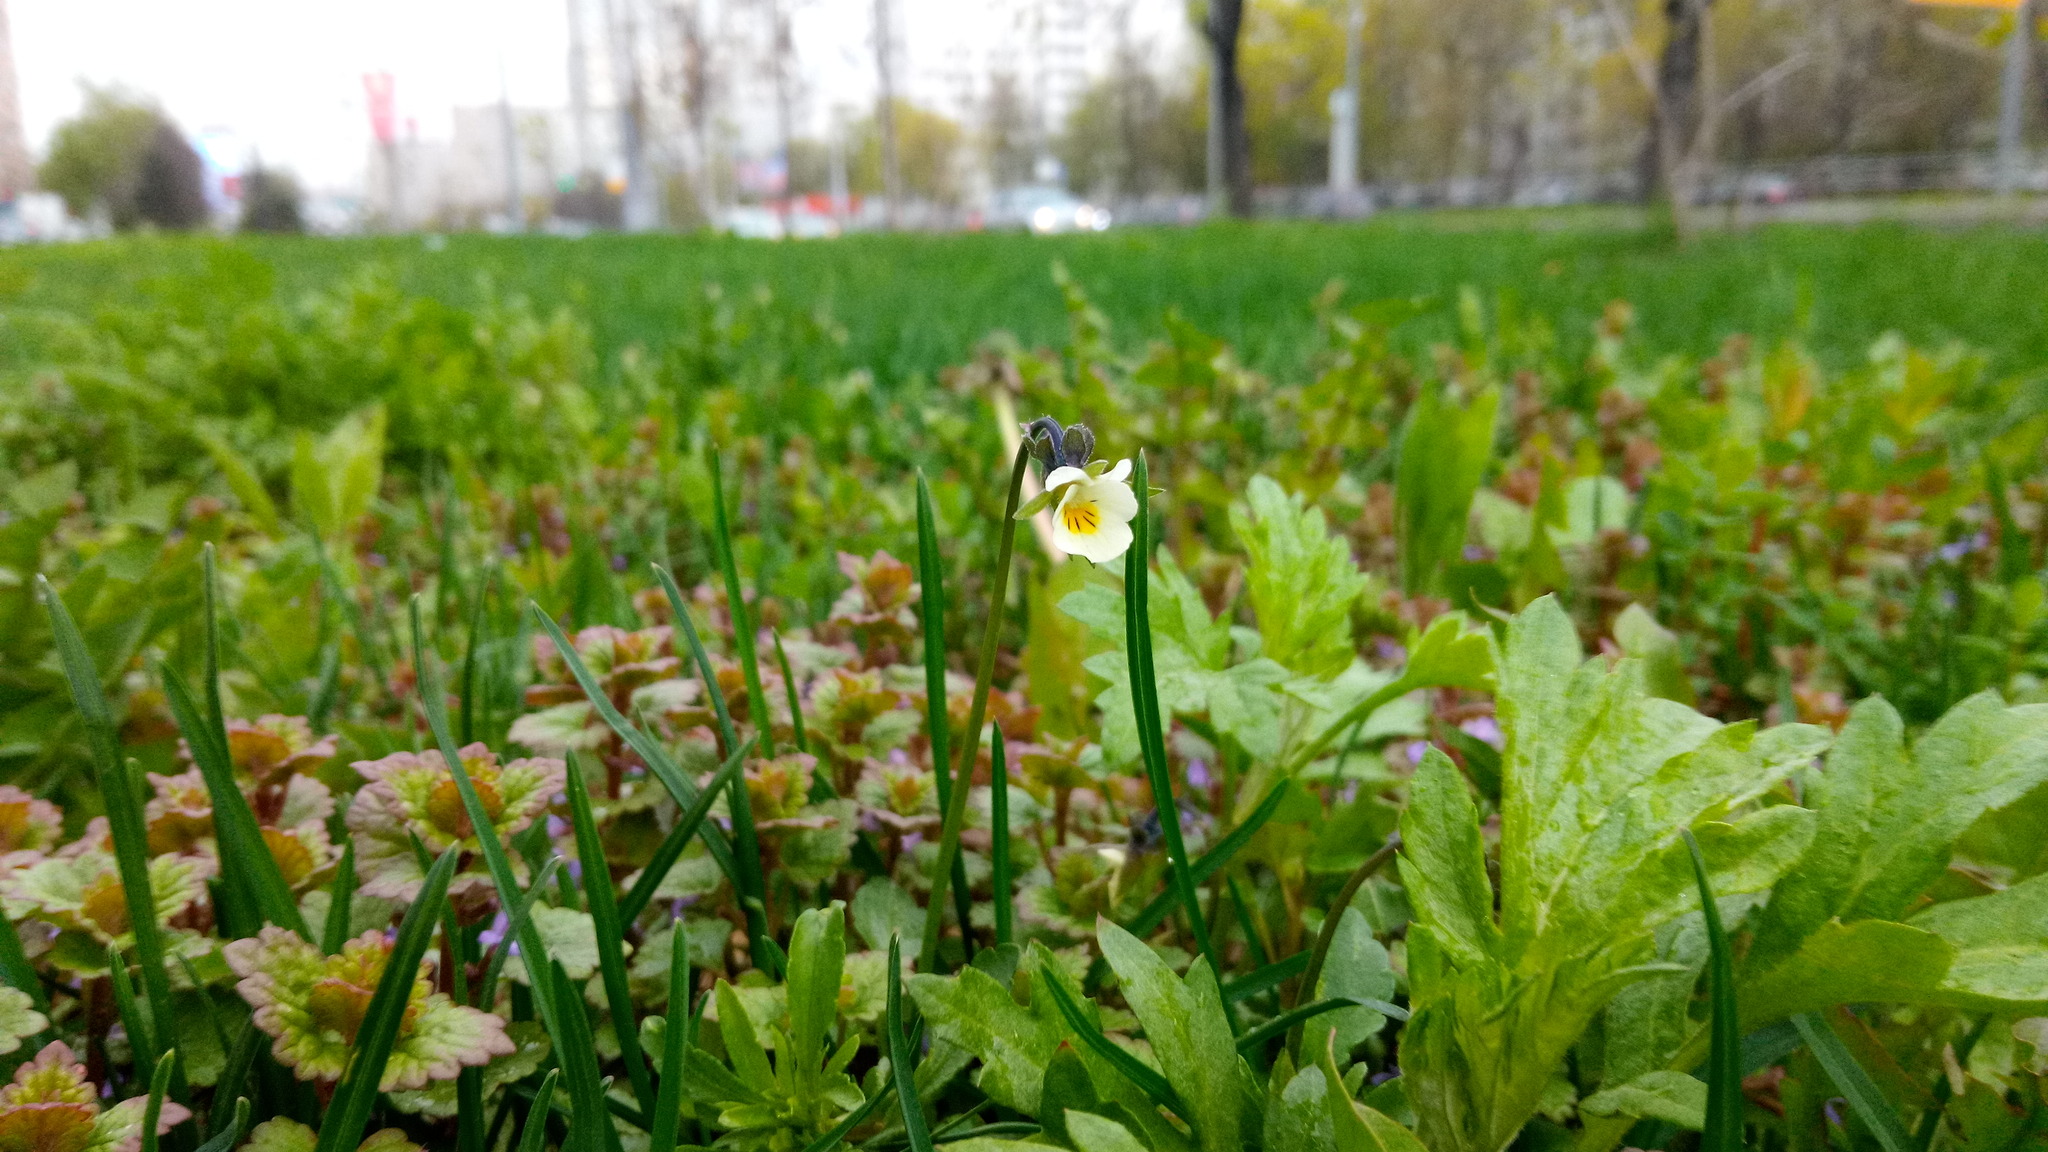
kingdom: Plantae
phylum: Tracheophyta
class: Magnoliopsida
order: Malpighiales
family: Violaceae
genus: Viola
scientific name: Viola arvensis
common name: Field pansy
